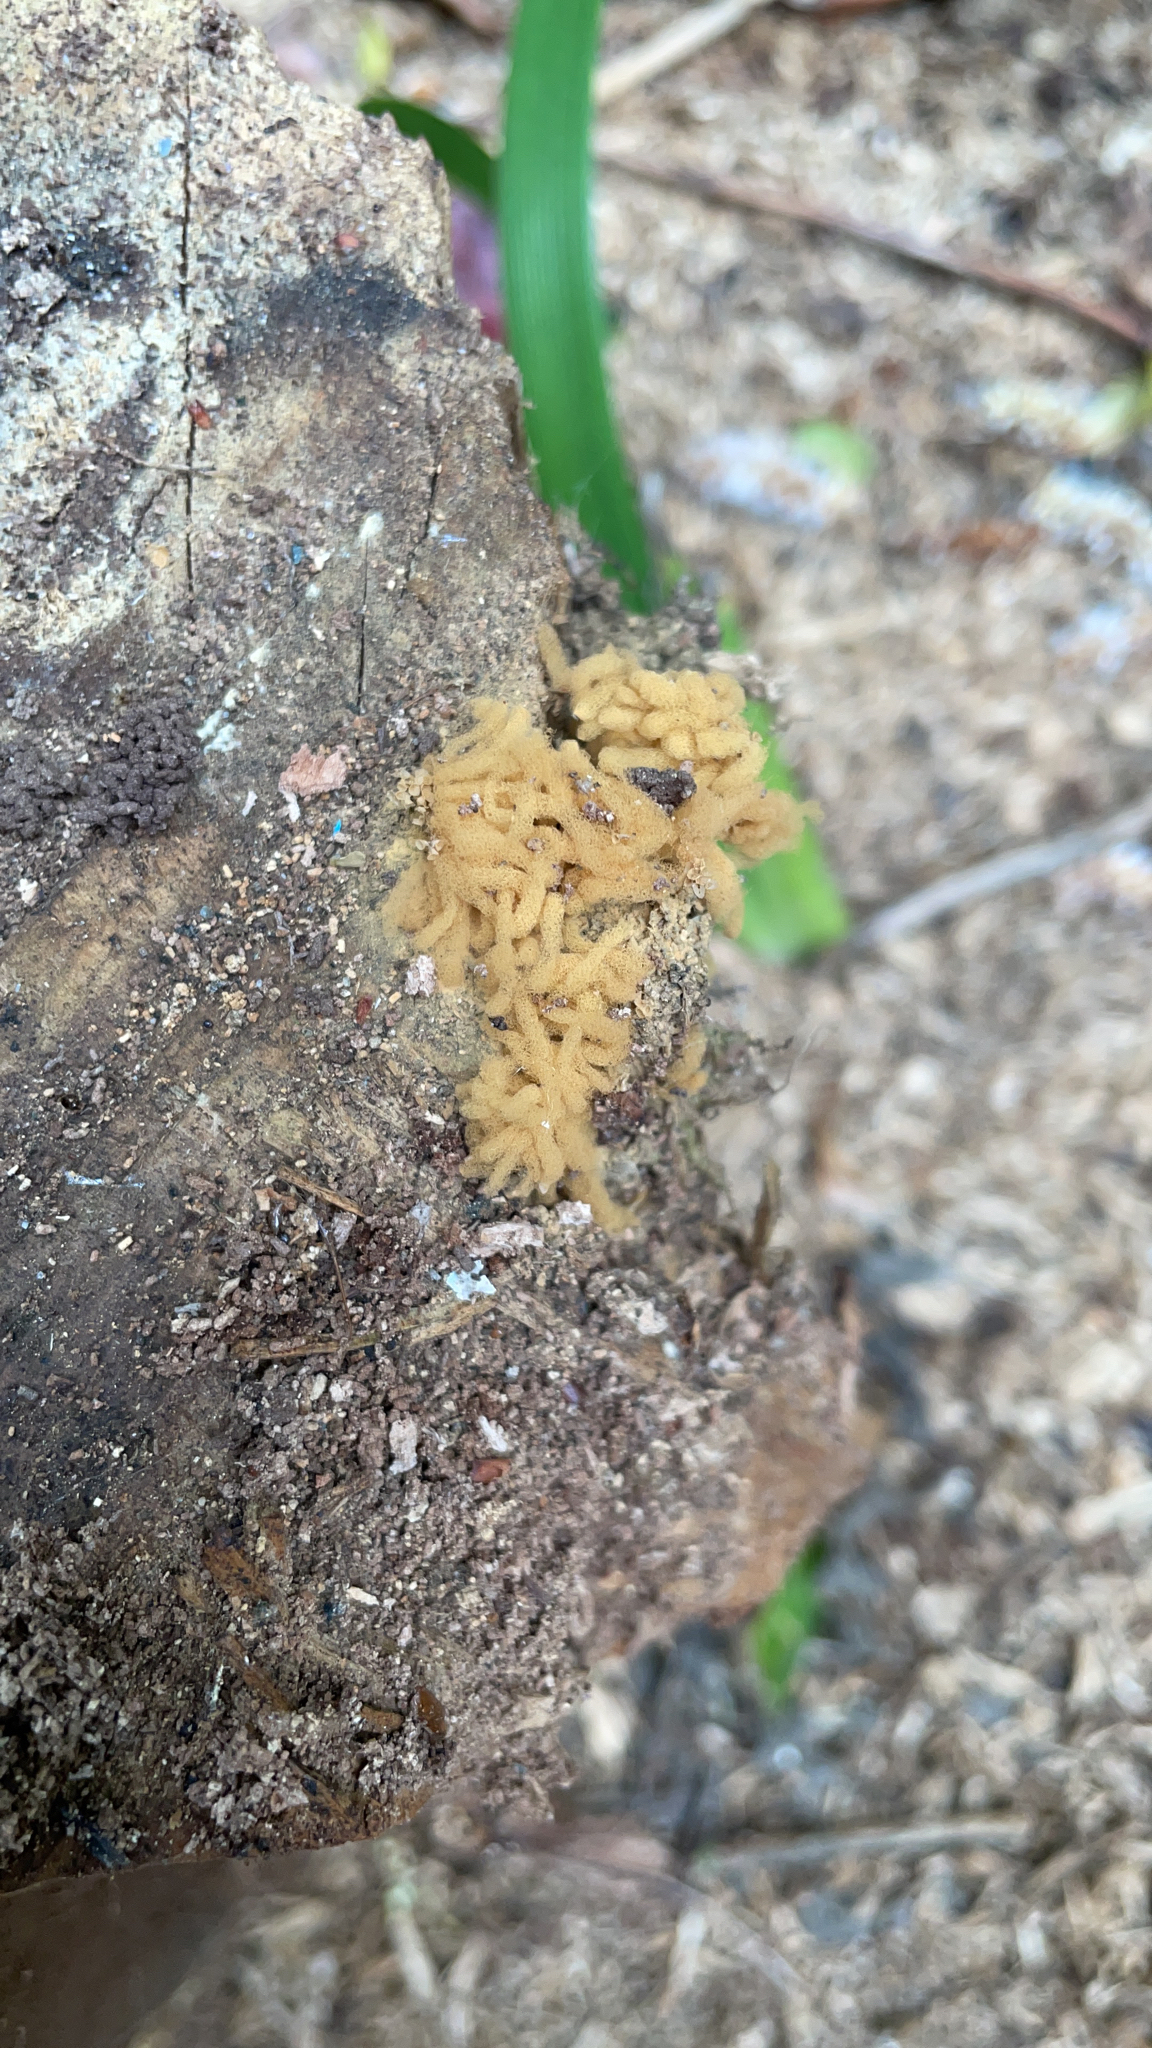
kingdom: Protozoa
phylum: Mycetozoa
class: Myxomycetes
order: Trichiales
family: Arcyriaceae
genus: Arcyria
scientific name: Arcyria obvelata
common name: Yellow carnival candy slime
